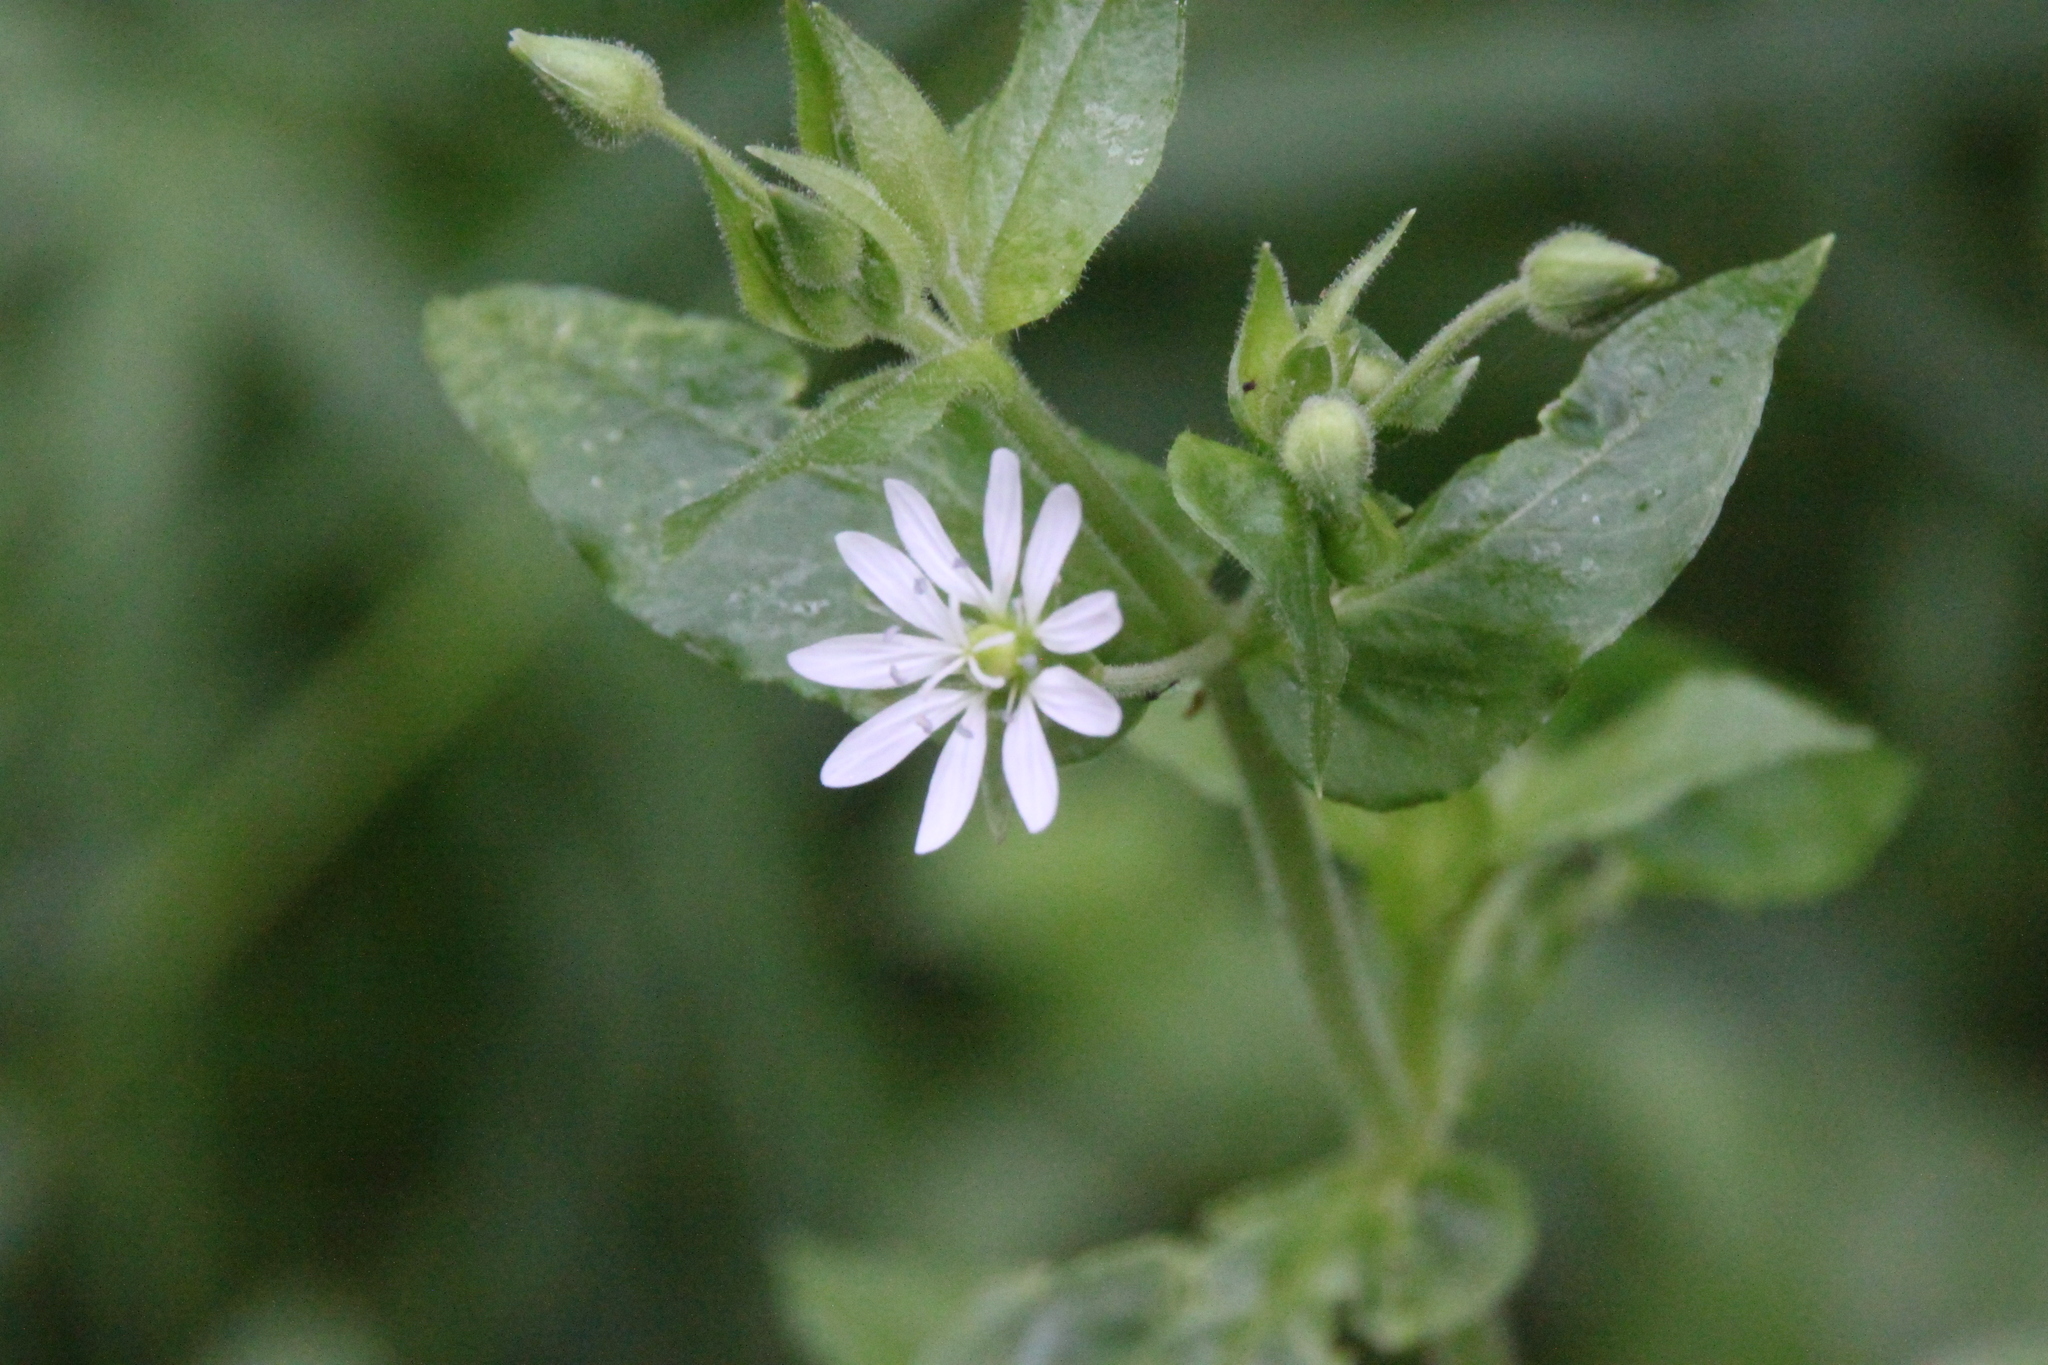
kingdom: Plantae
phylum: Tracheophyta
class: Magnoliopsida
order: Caryophyllales
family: Caryophyllaceae
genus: Stellaria
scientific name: Stellaria aquatica
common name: Water chickweed
